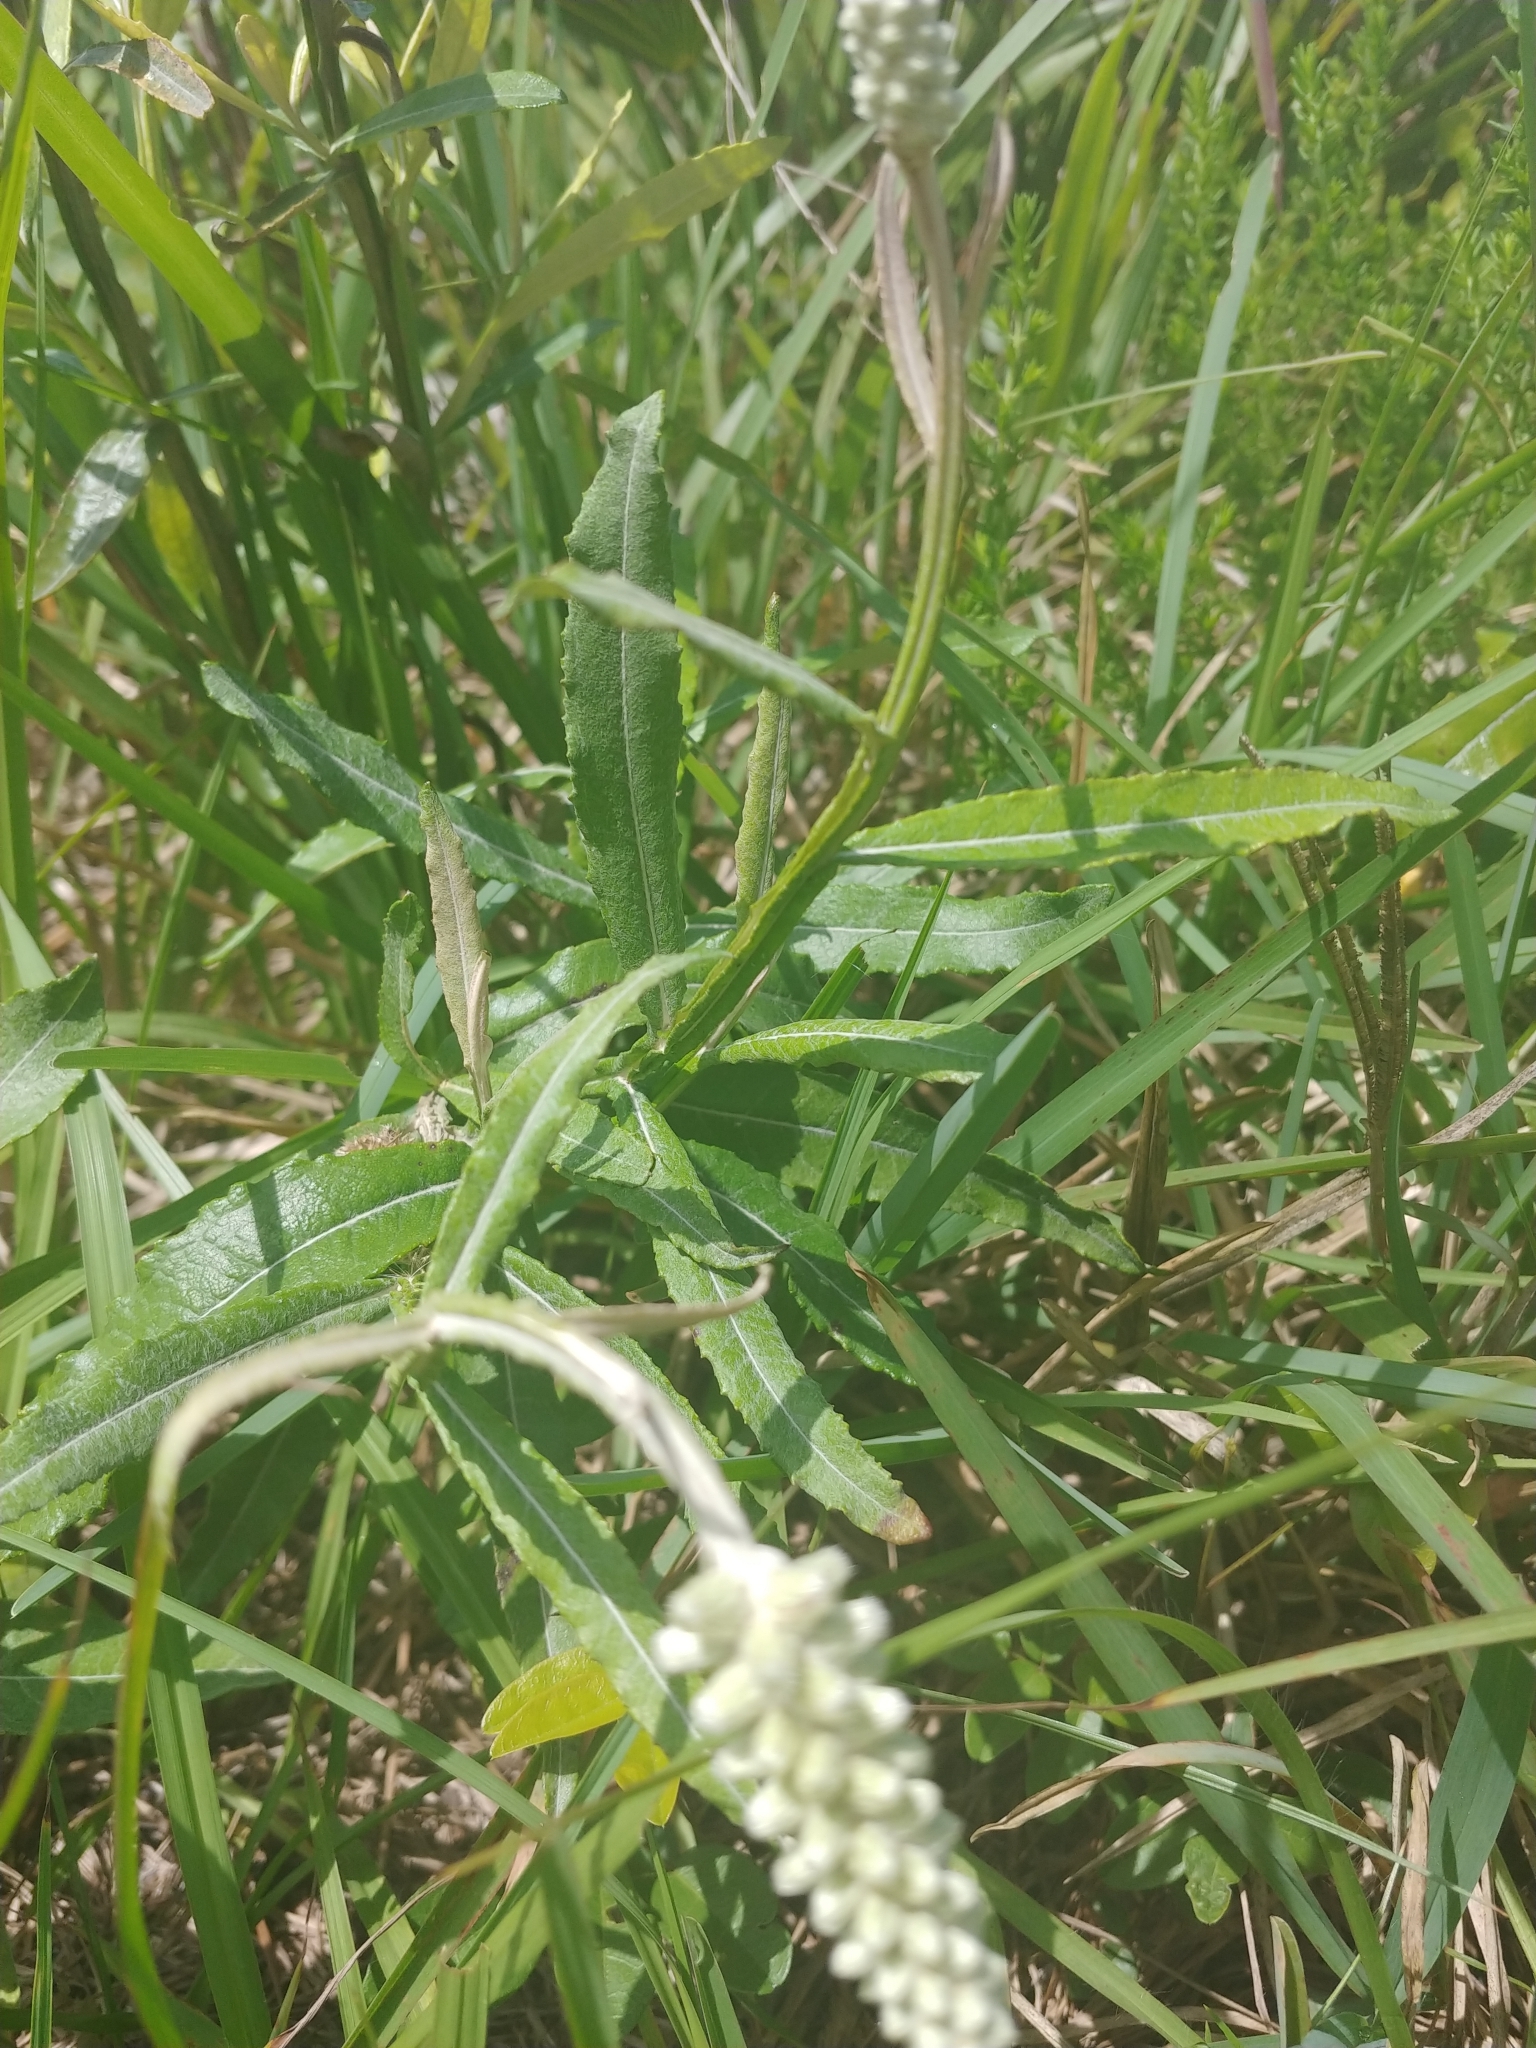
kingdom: Plantae
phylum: Tracheophyta
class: Magnoliopsida
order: Asterales
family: Asteraceae
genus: Pterocaulon
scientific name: Pterocaulon pycnostachyum
